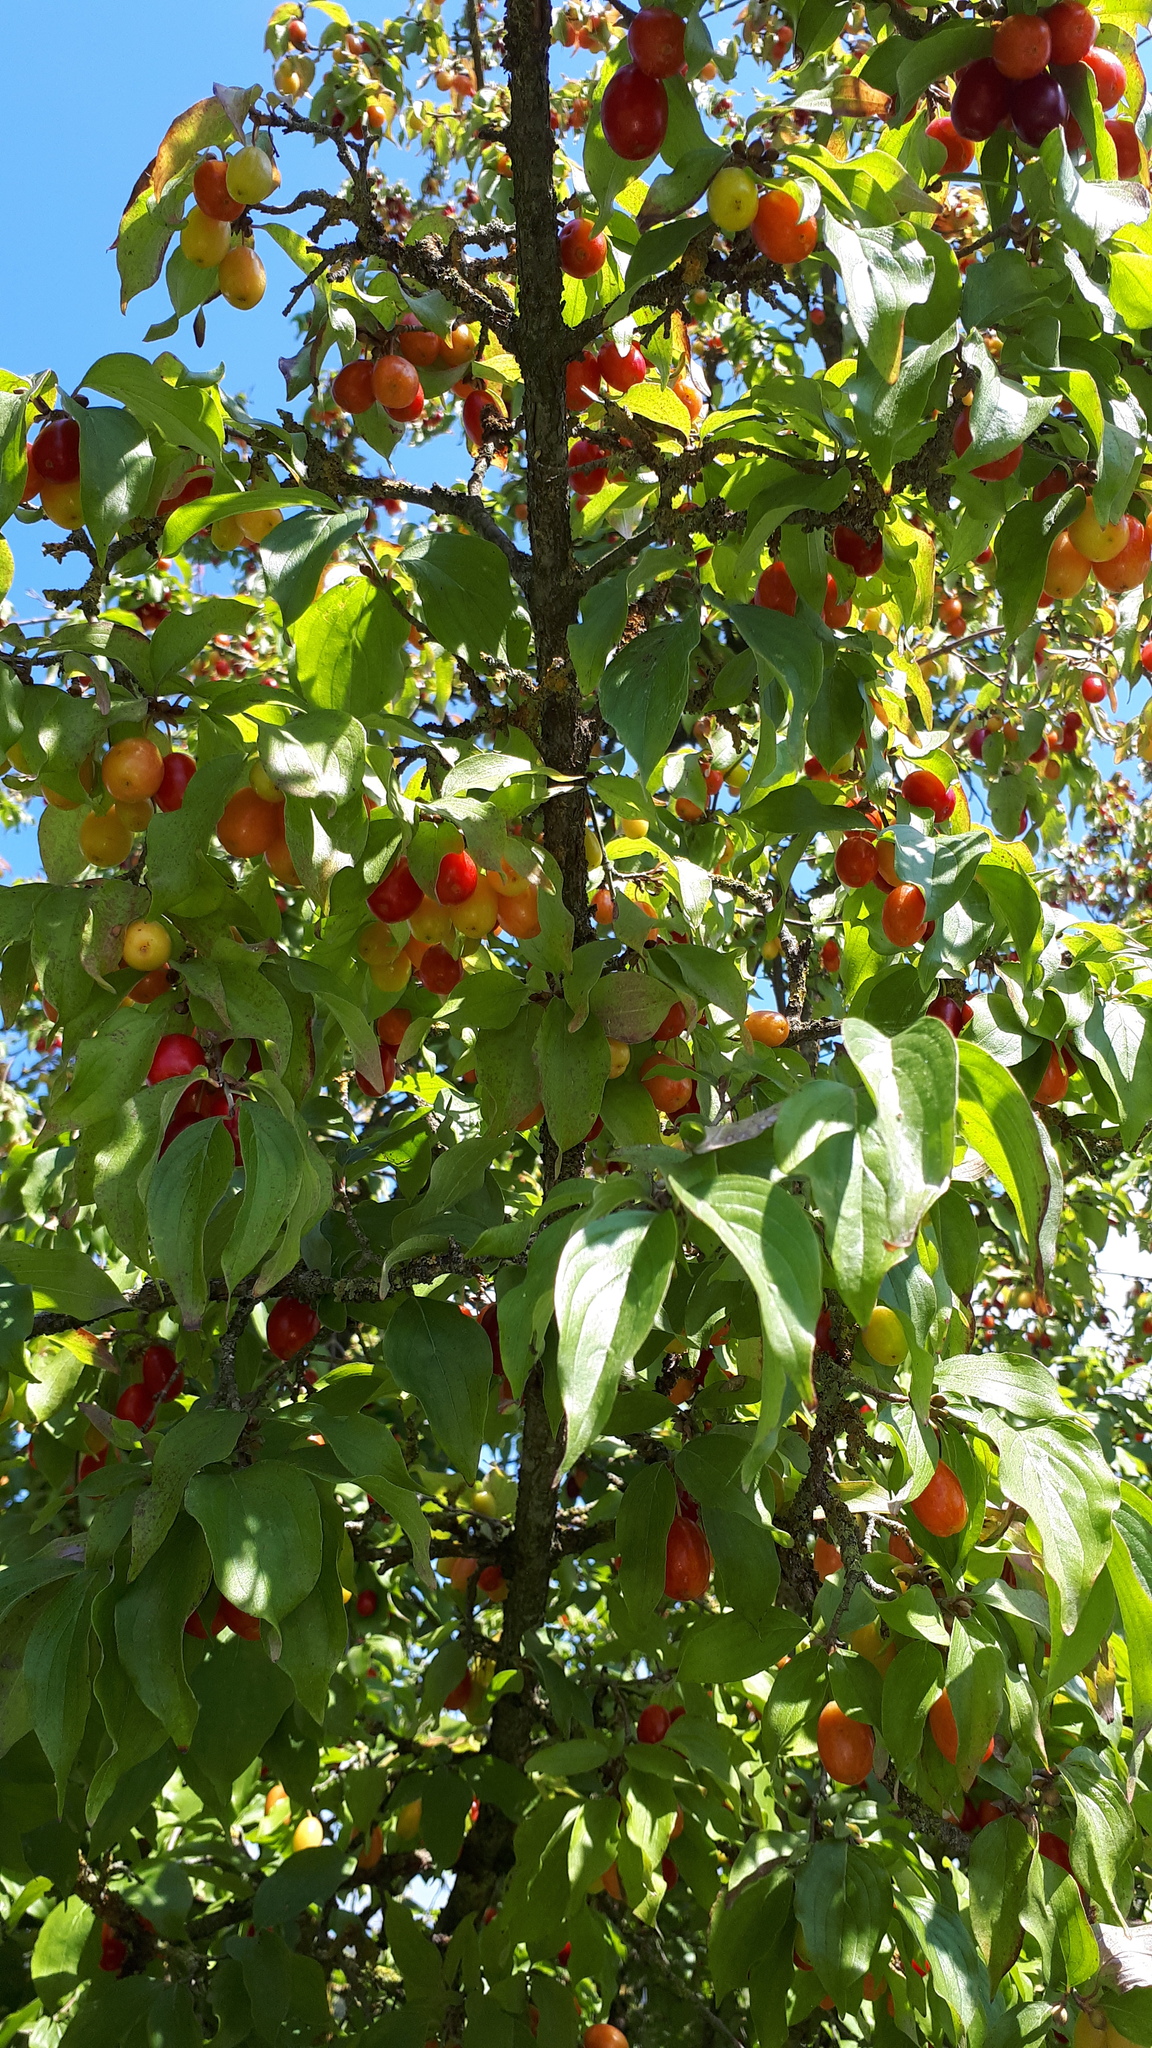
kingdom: Plantae
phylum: Tracheophyta
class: Magnoliopsida
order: Cornales
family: Cornaceae
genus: Cornus
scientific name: Cornus mas
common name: Cornelian-cherry
